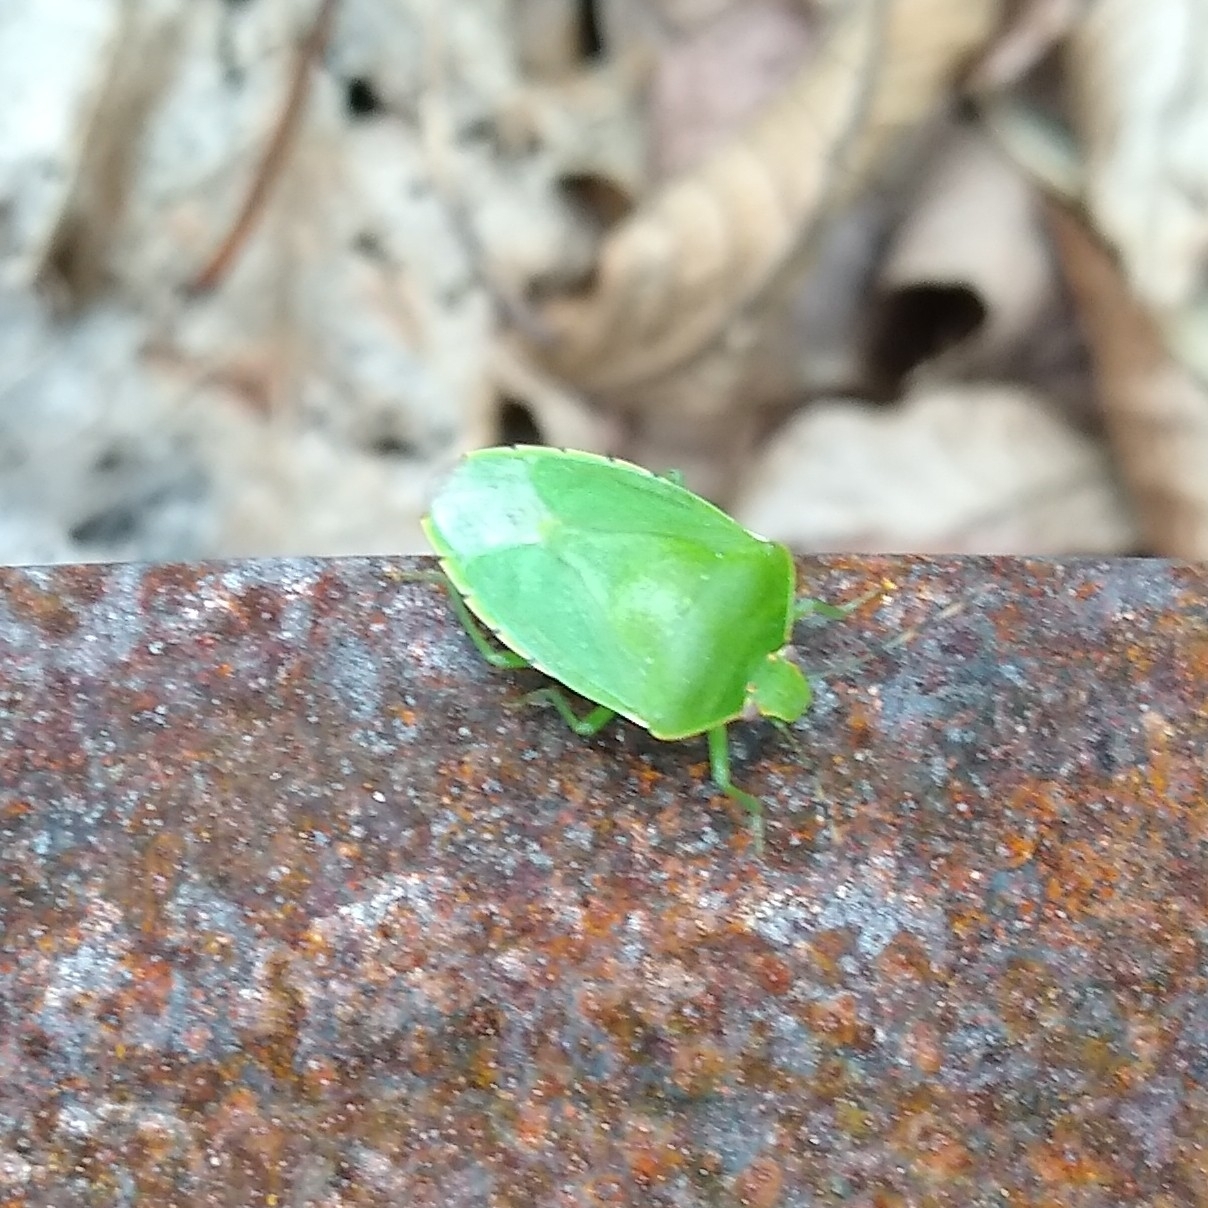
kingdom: Animalia
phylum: Arthropoda
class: Insecta
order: Hemiptera
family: Pentatomidae
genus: Chinavia
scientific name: Chinavia hilaris
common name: Green stink bug
